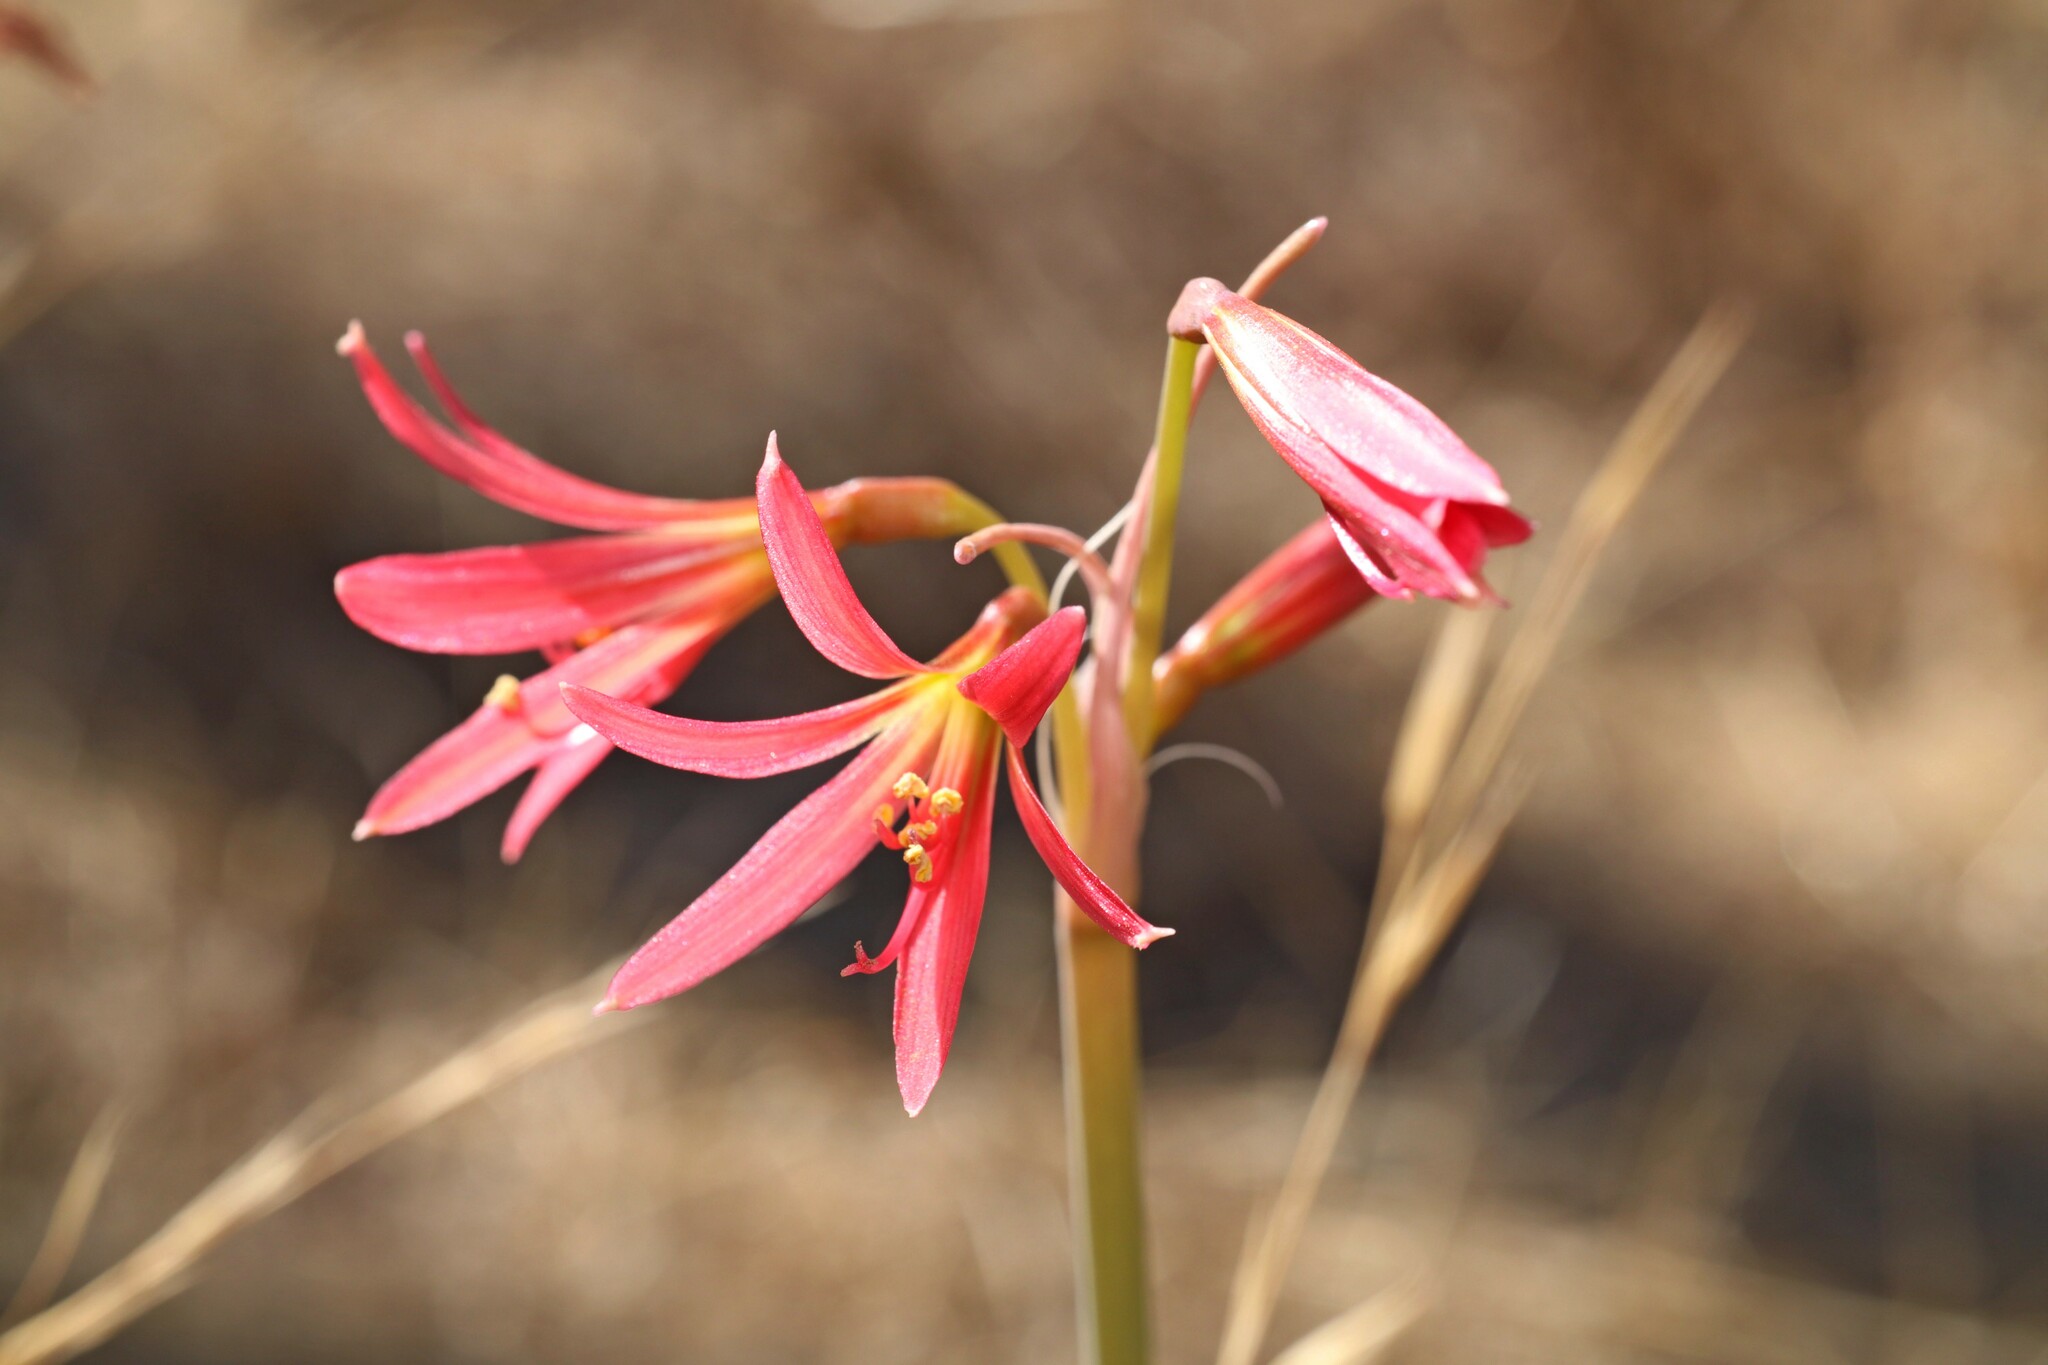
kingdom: Plantae
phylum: Tracheophyta
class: Liliopsida
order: Asparagales
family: Amaryllidaceae
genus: Zephyranthes
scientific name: Zephyranthes advena
